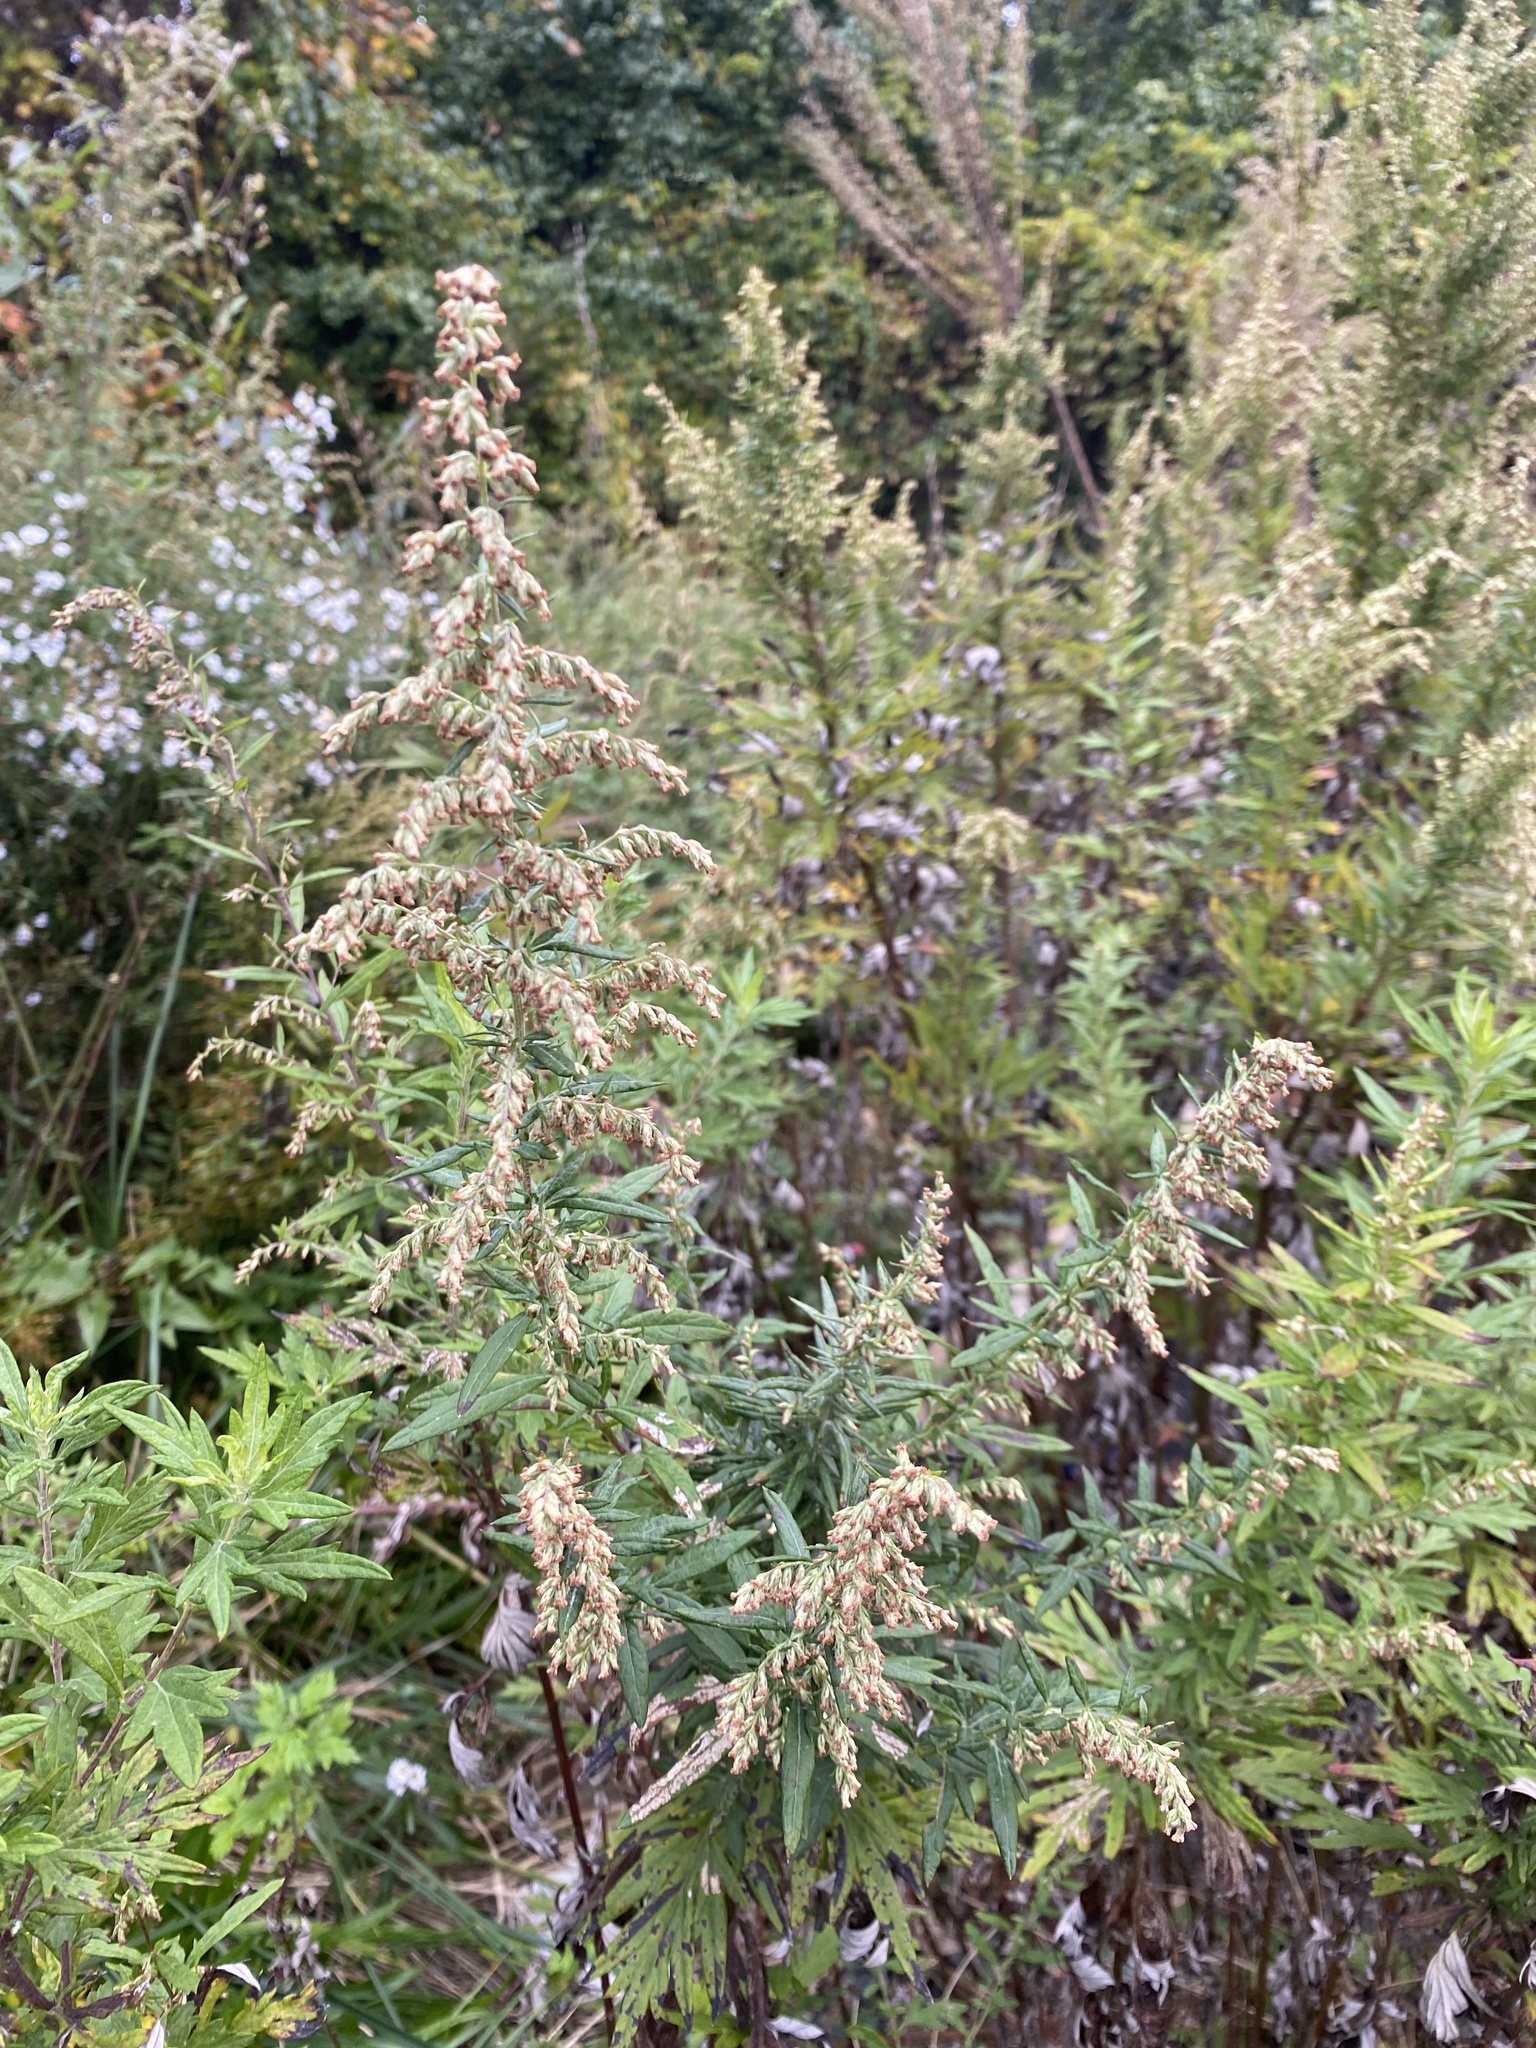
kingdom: Plantae
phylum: Tracheophyta
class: Magnoliopsida
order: Asterales
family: Asteraceae
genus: Artemisia
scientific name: Artemisia vulgaris
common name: Mugwort
